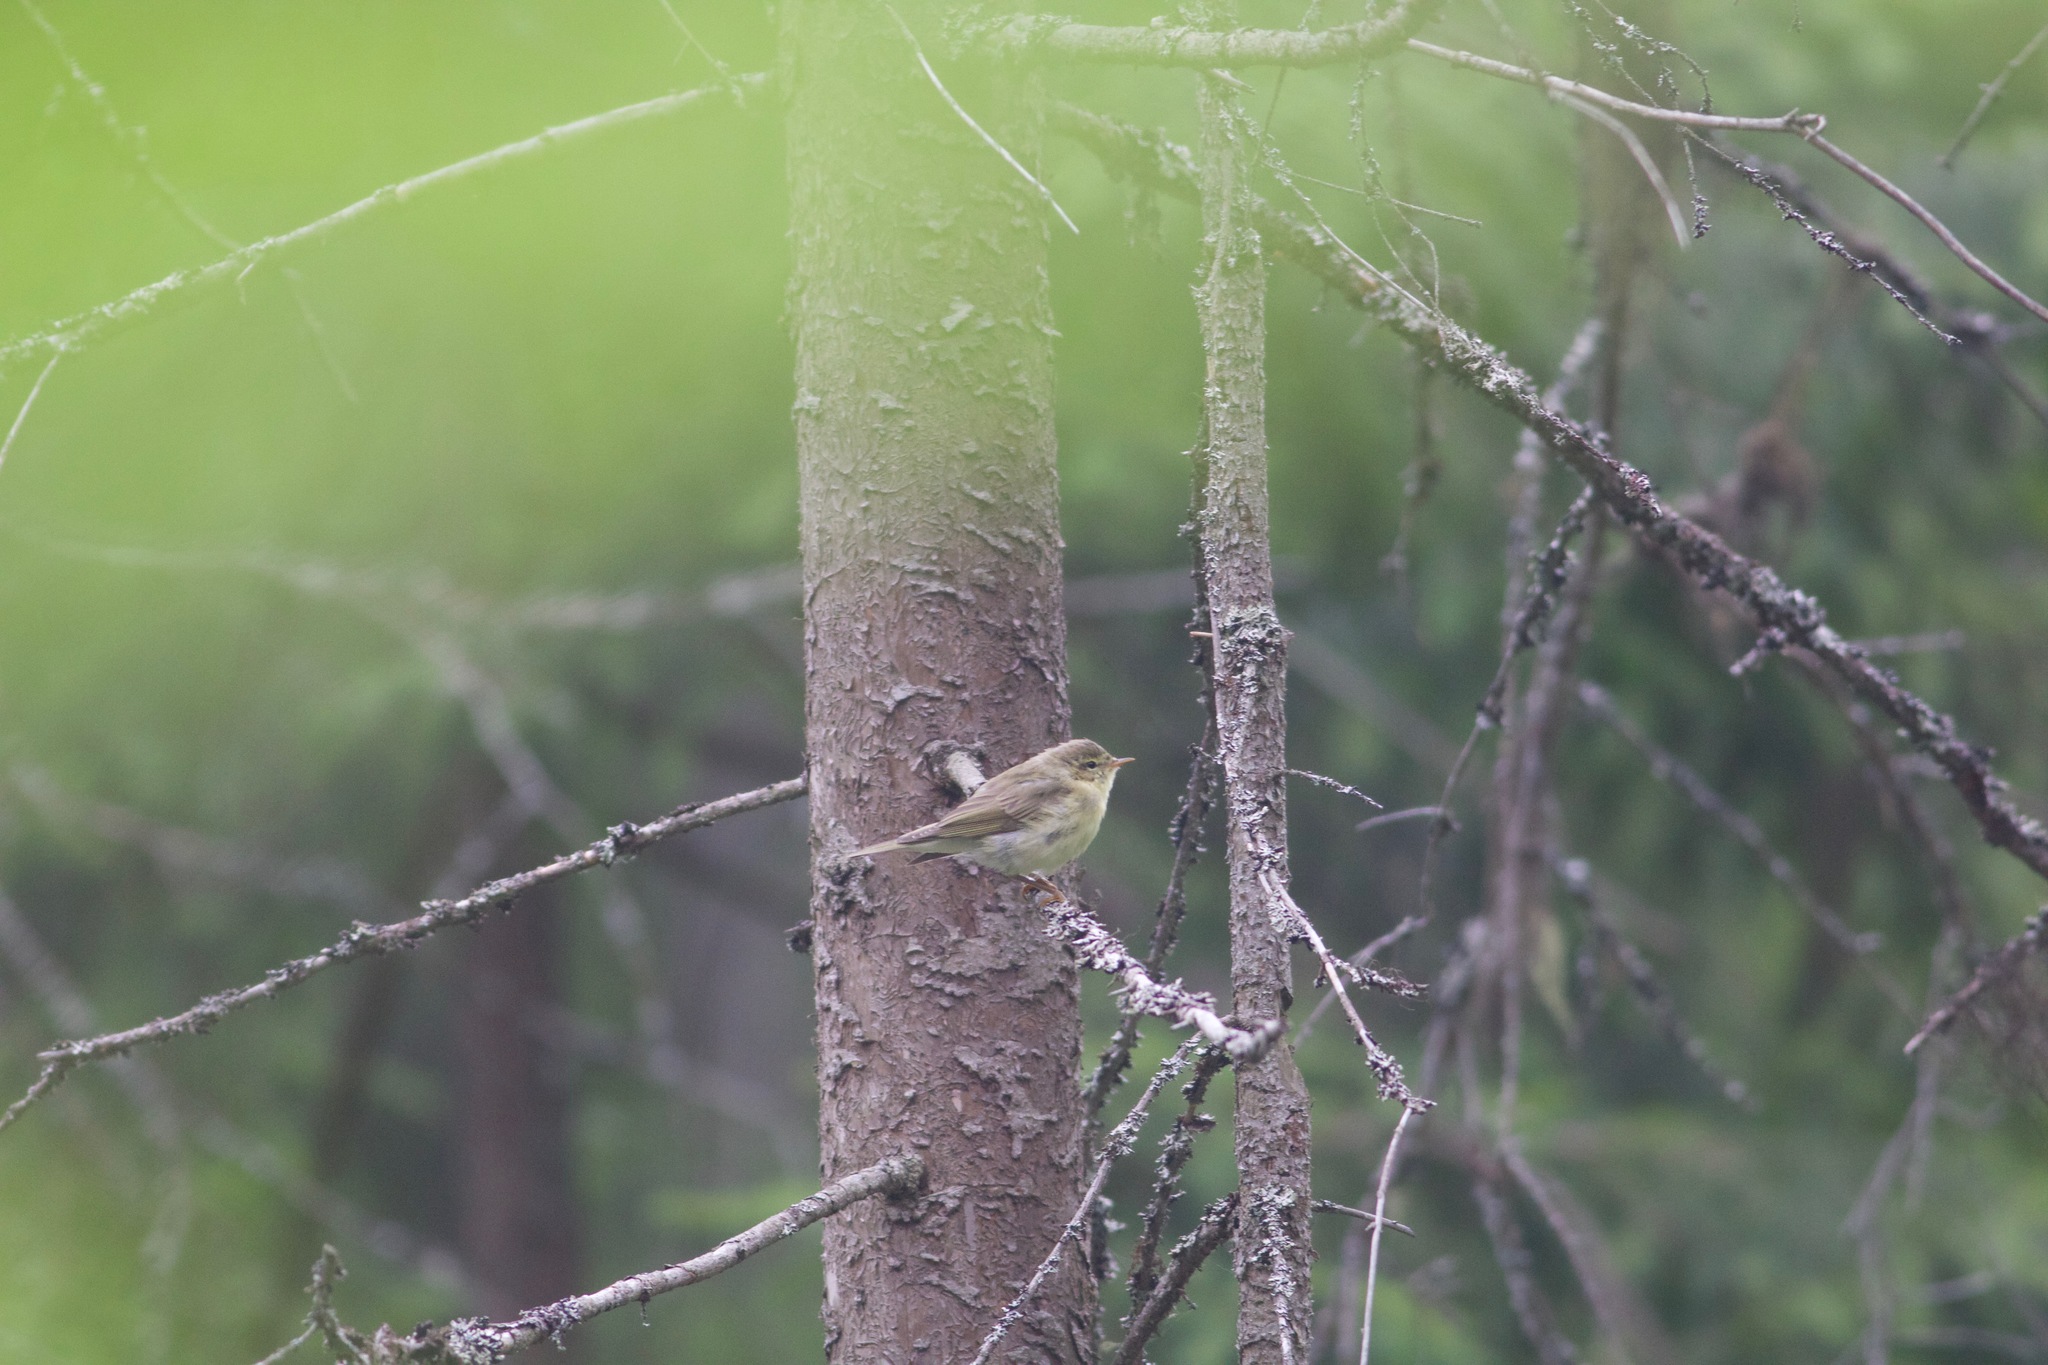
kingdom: Animalia
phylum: Chordata
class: Aves
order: Passeriformes
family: Phylloscopidae
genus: Phylloscopus
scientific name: Phylloscopus trochilus
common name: Willow warbler
